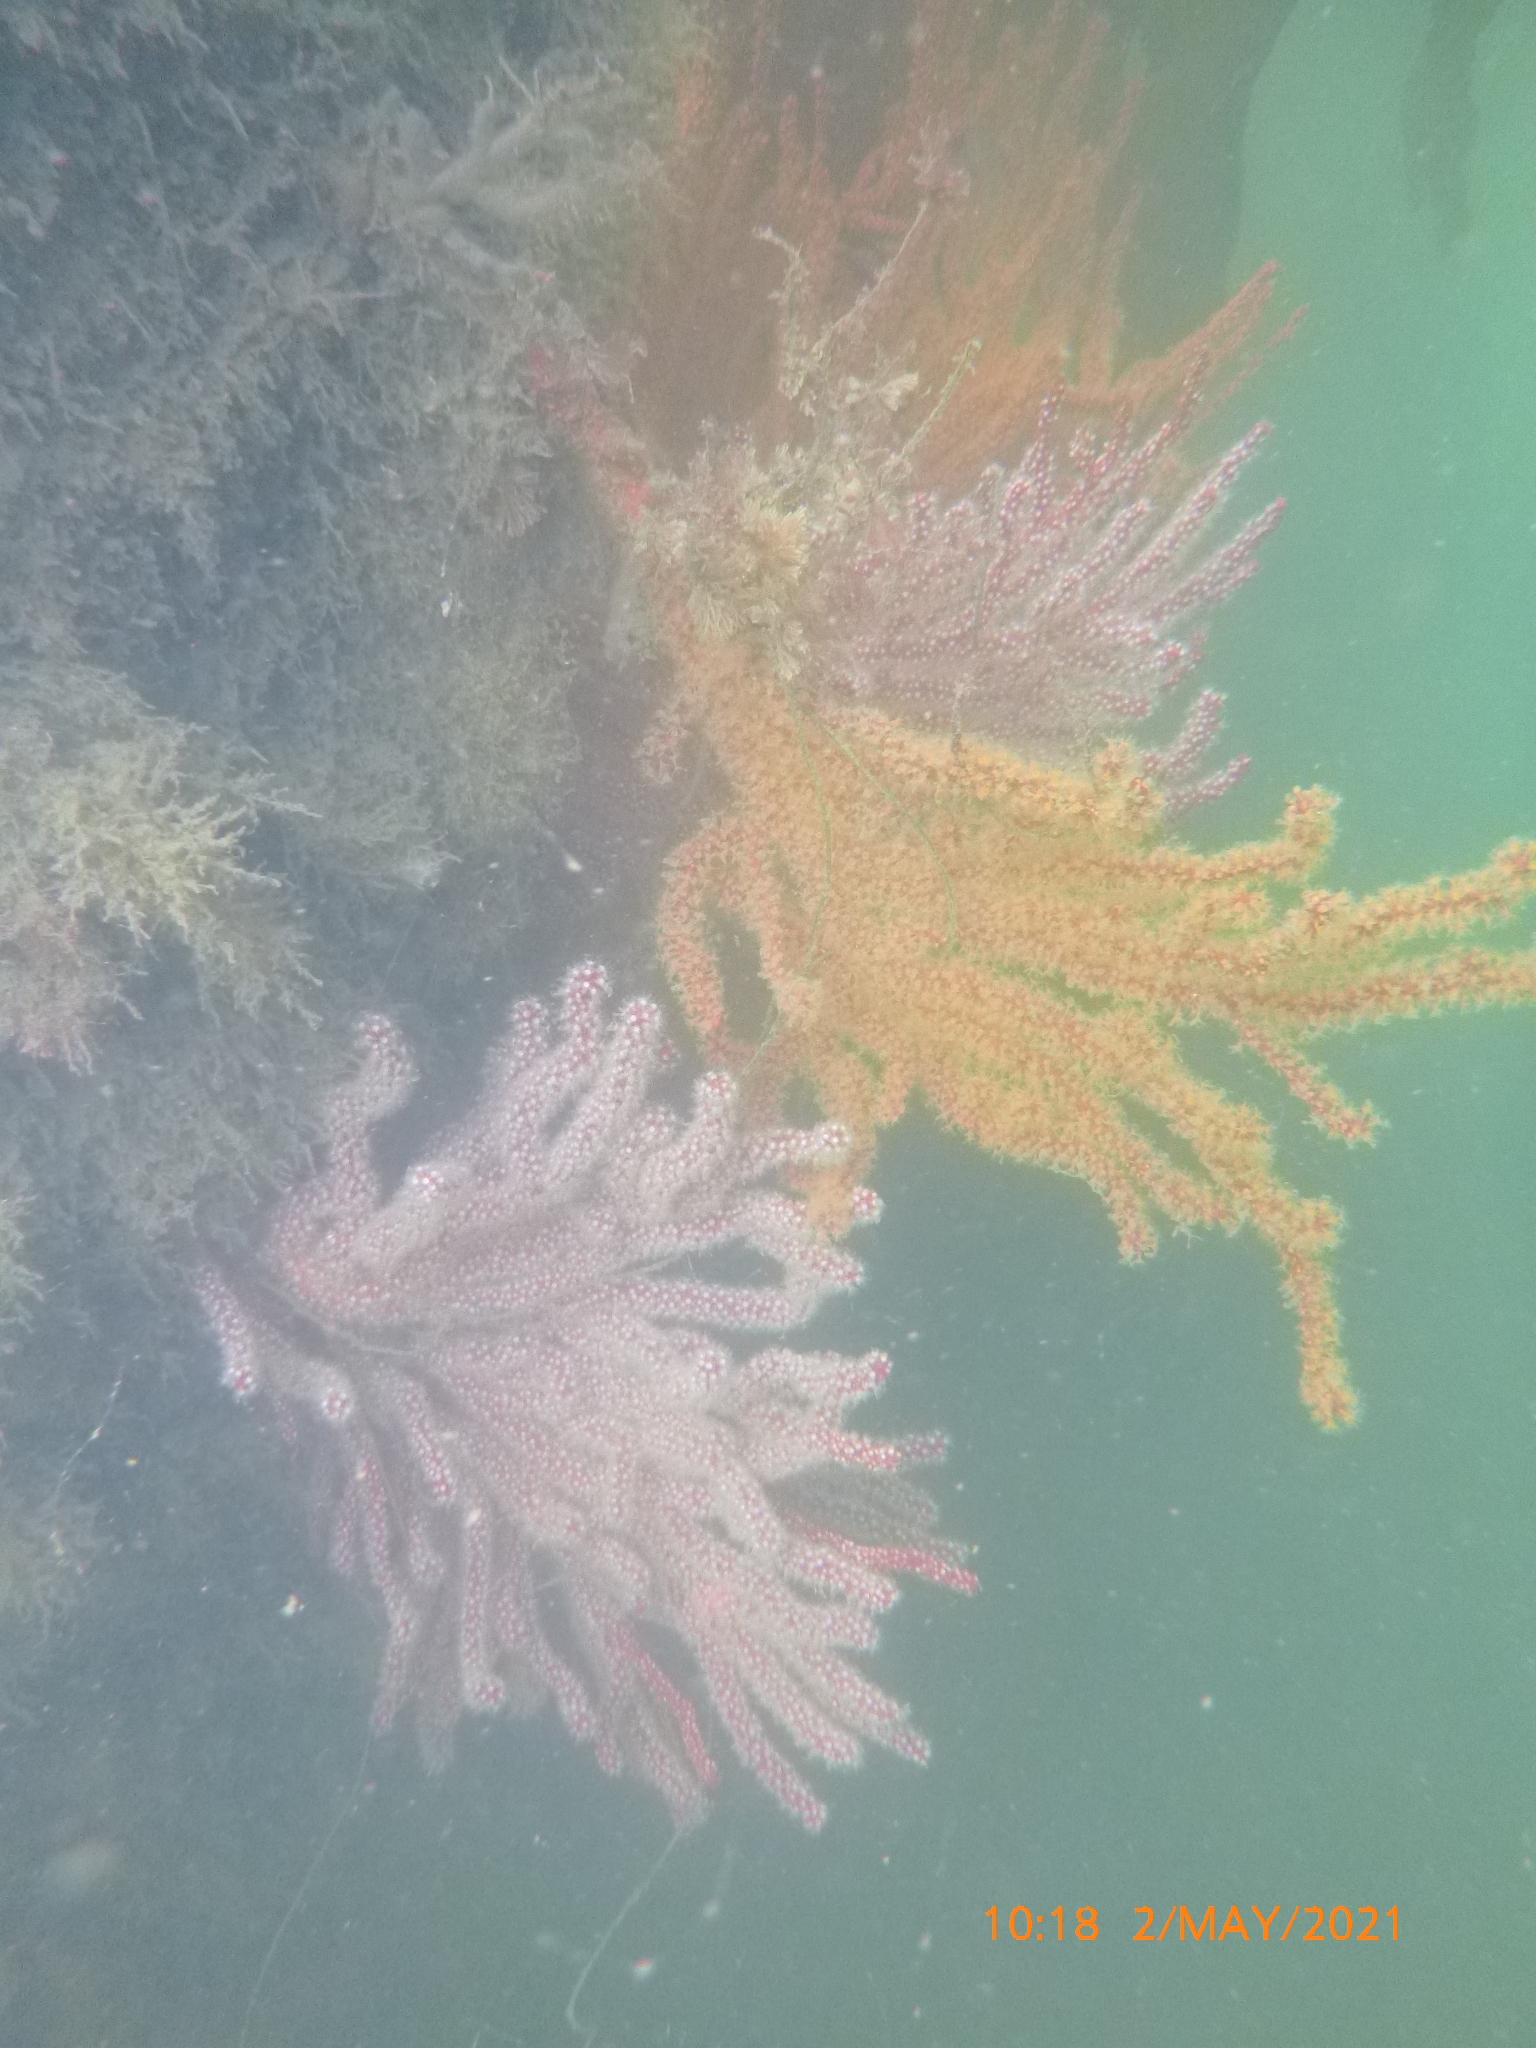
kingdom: Animalia
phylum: Cnidaria
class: Anthozoa
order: Malacalcyonacea
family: Plexauridae
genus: Muricea
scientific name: Muricea californica
